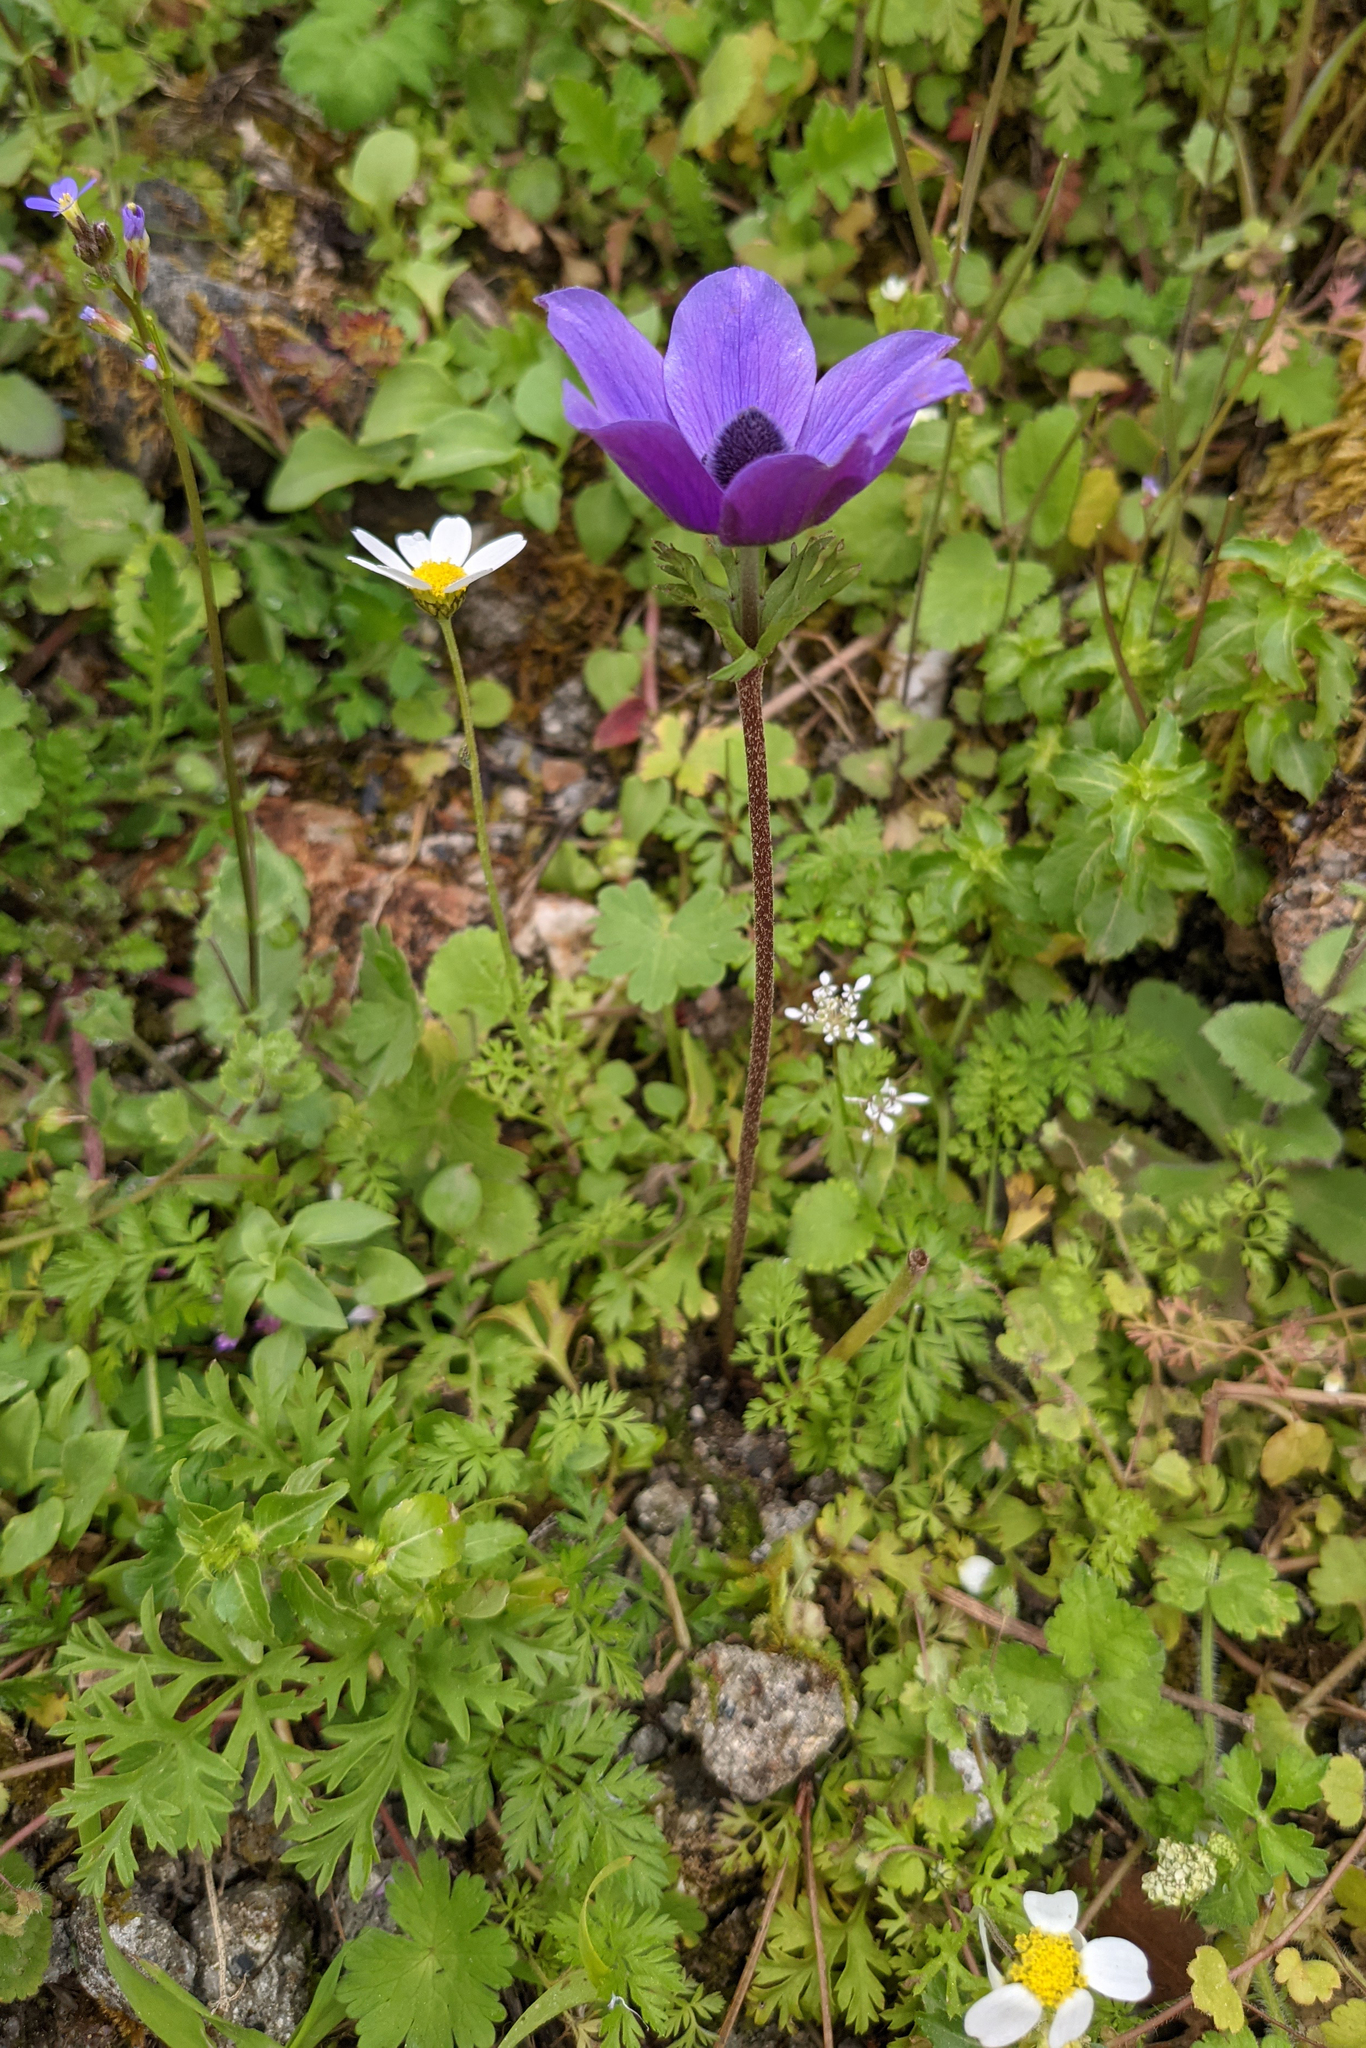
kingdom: Plantae
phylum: Tracheophyta
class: Magnoliopsida
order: Ranunculales
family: Ranunculaceae
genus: Anemone
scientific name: Anemone coronaria
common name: Poppy anemone
